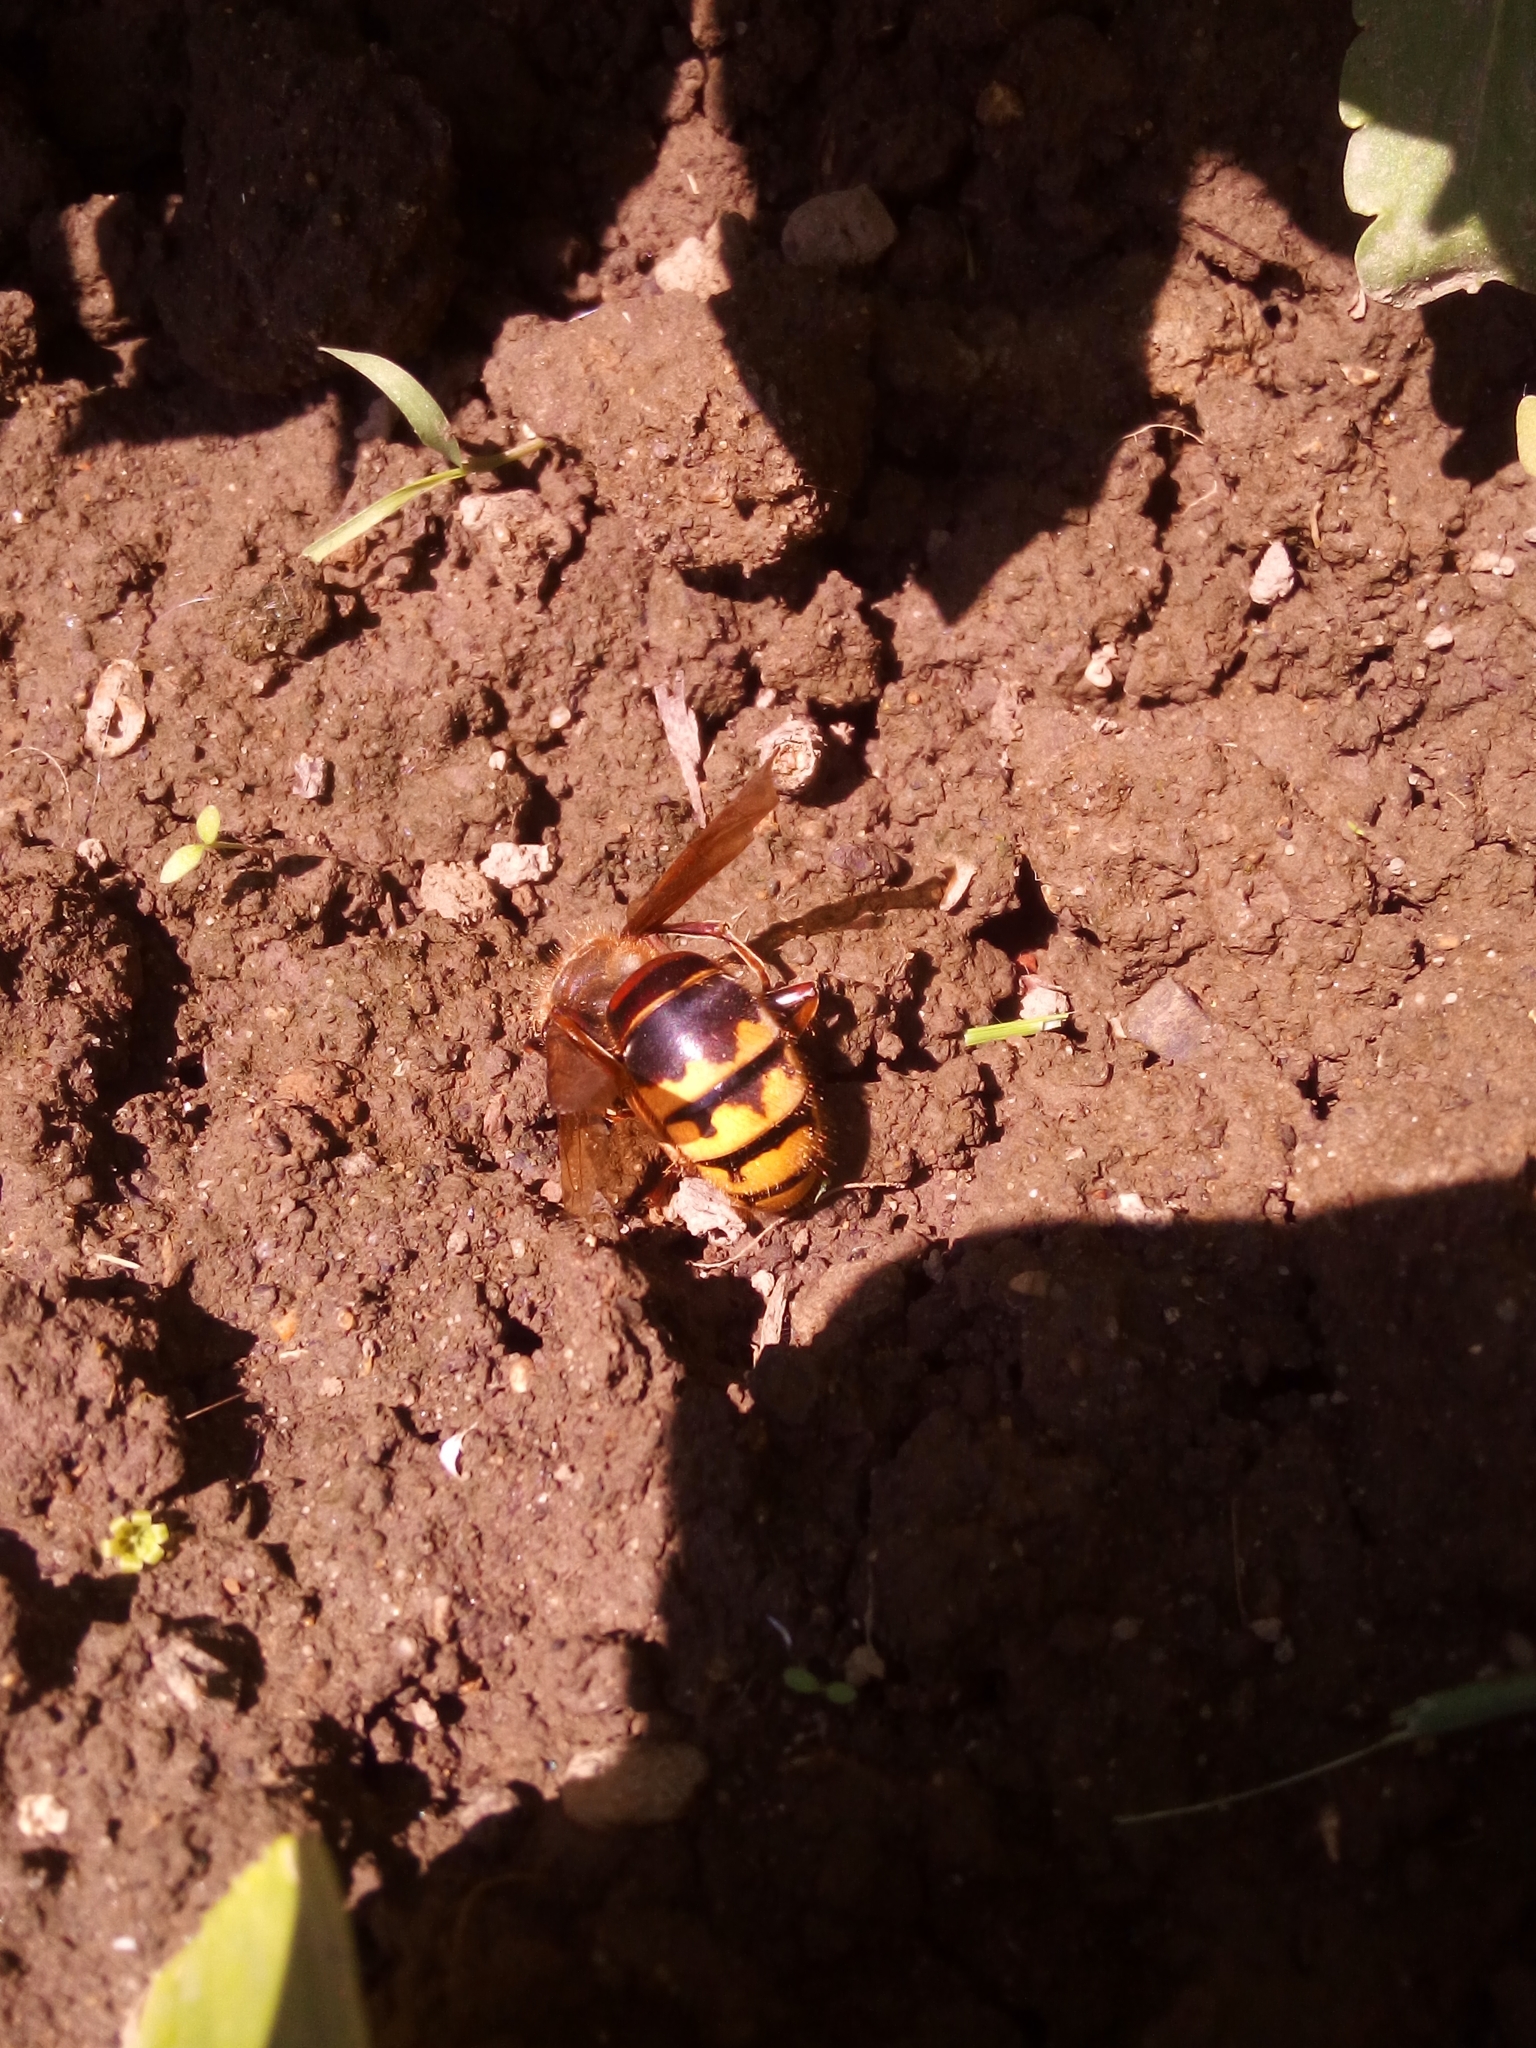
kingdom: Animalia
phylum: Arthropoda
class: Insecta
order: Hymenoptera
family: Vespidae
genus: Vespa
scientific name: Vespa crabro
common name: Hornet
